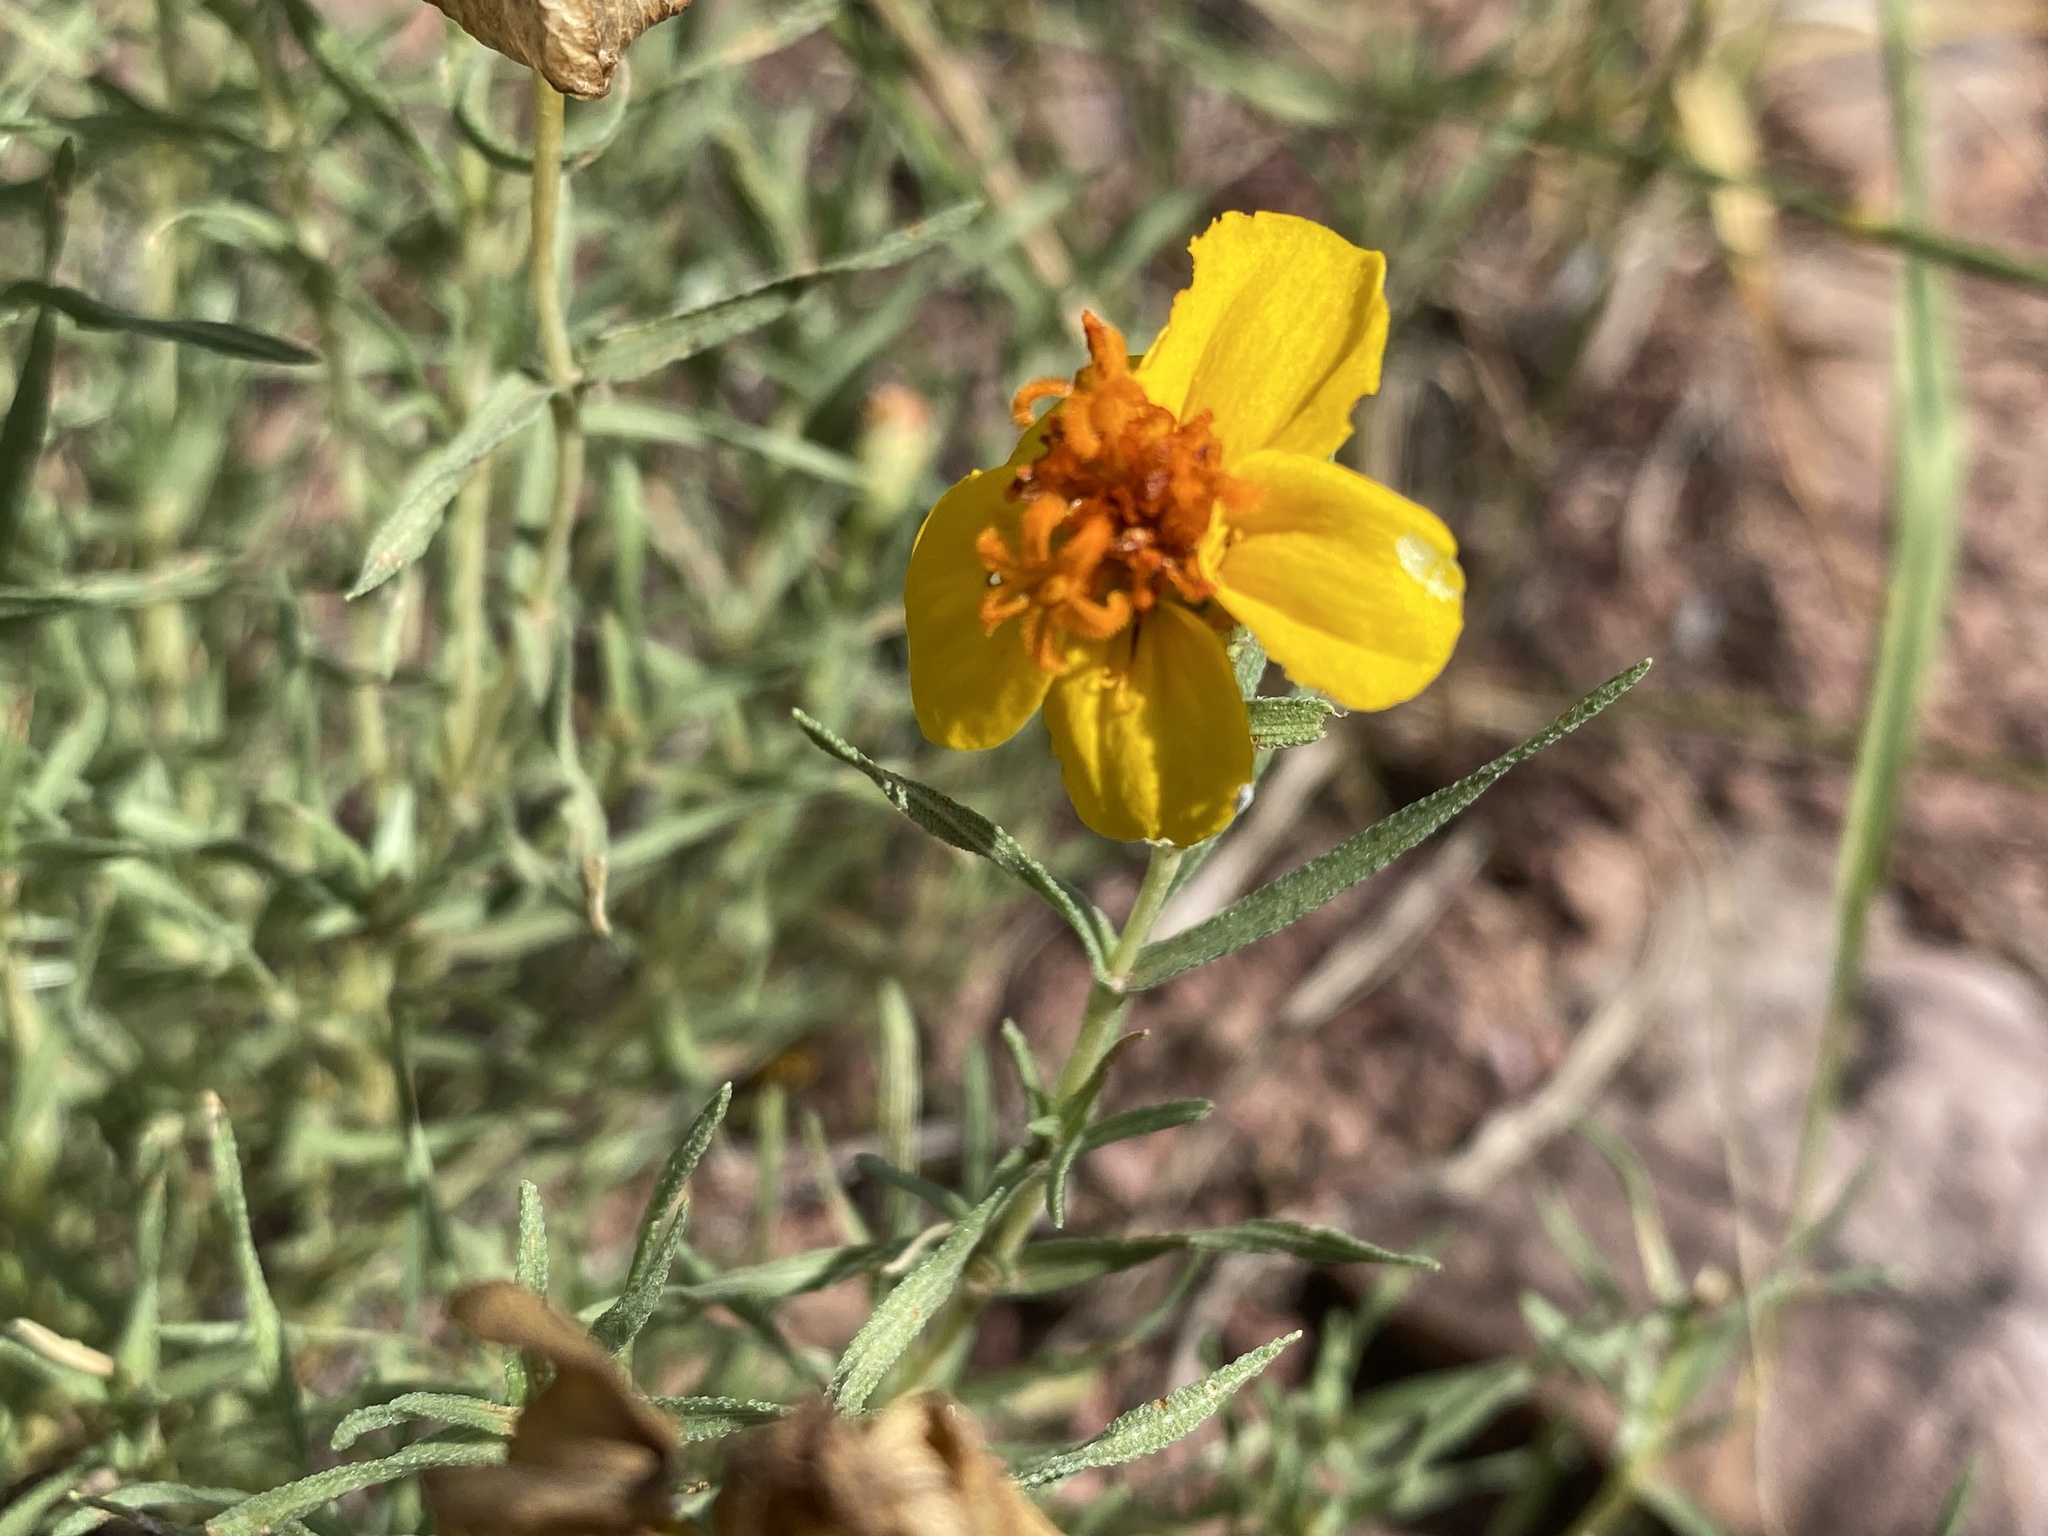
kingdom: Plantae
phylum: Tracheophyta
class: Magnoliopsida
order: Asterales
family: Asteraceae
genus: Zinnia
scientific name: Zinnia grandiflora
